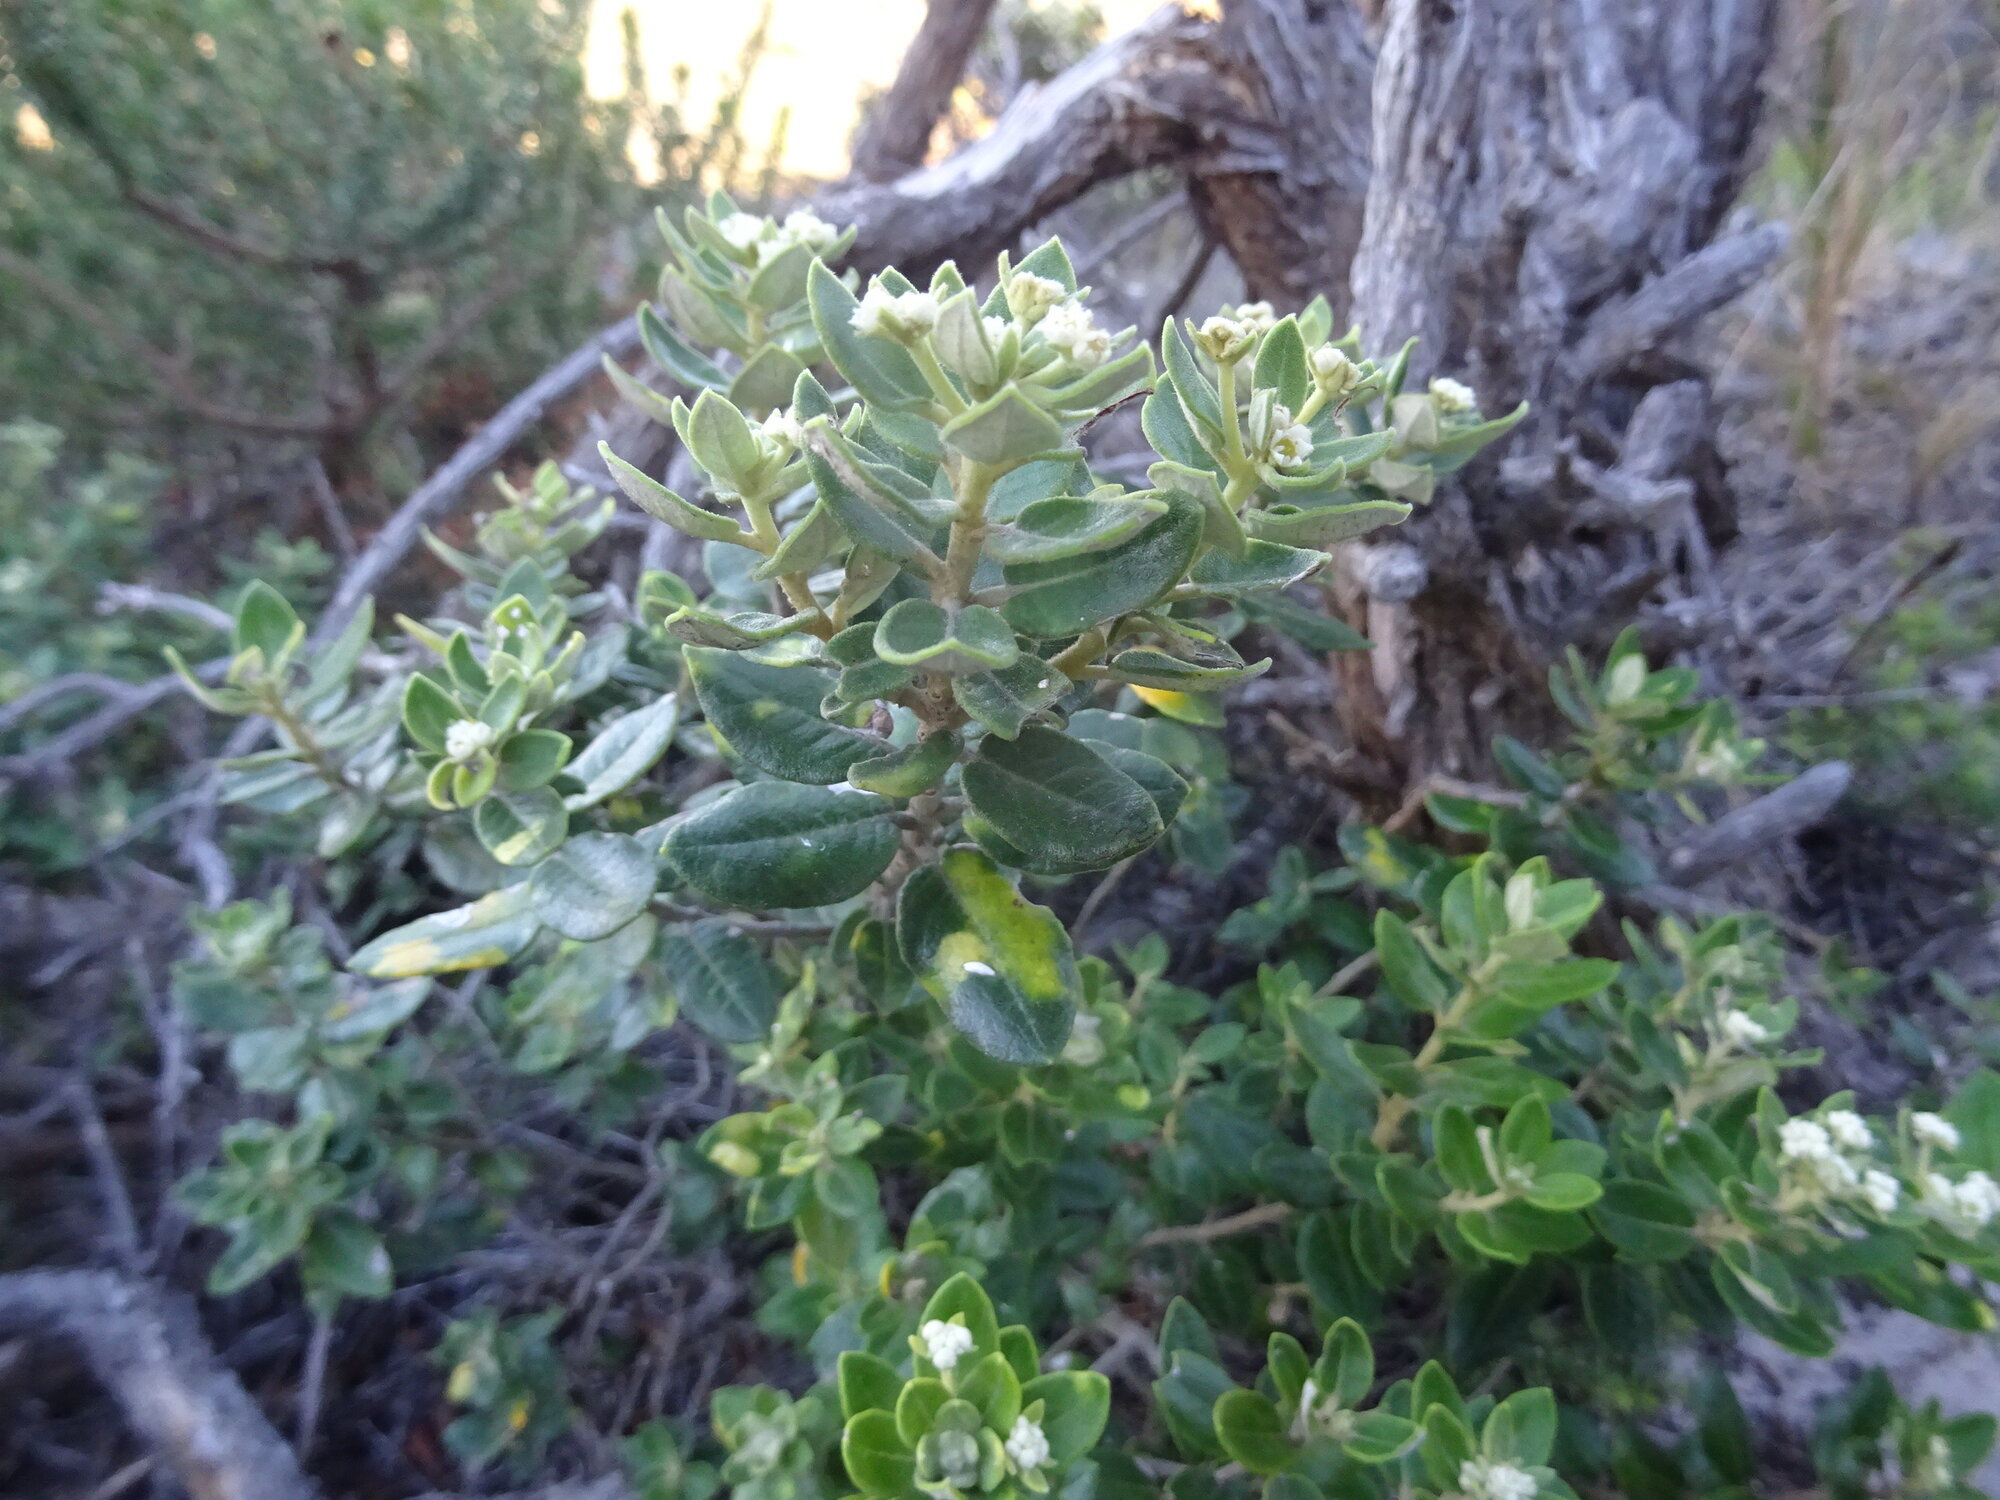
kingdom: Plantae
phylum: Tracheophyta
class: Magnoliopsida
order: Rosales
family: Rhamnaceae
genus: Phylica
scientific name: Phylica buxifolia
